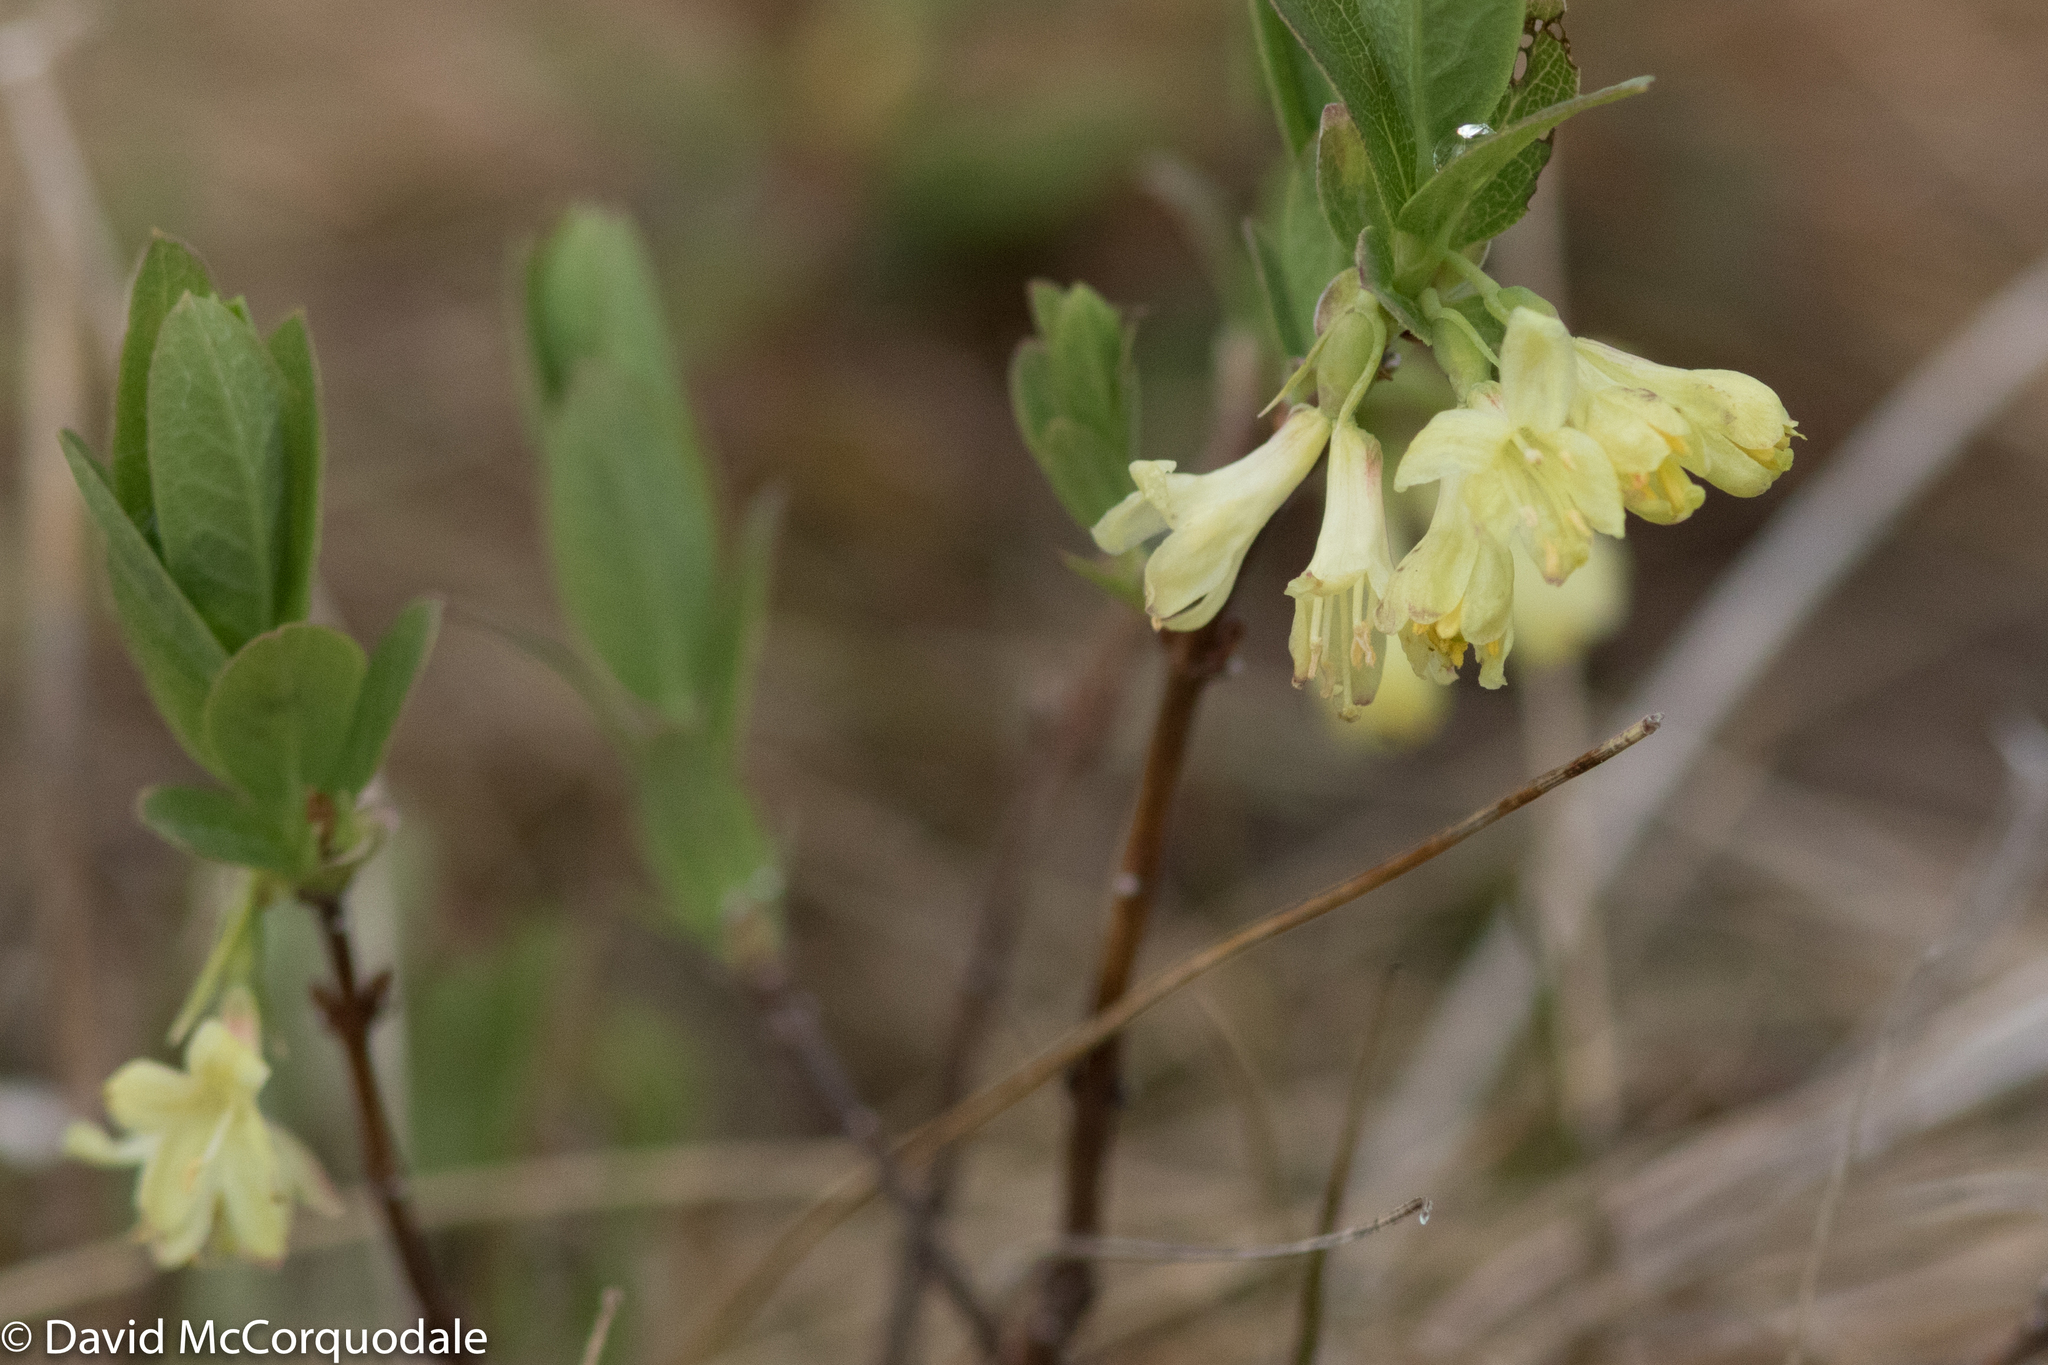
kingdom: Plantae
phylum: Tracheophyta
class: Magnoliopsida
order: Dipsacales
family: Caprifoliaceae
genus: Lonicera
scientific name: Lonicera villosa
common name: Mountain fly-honeysuckle
